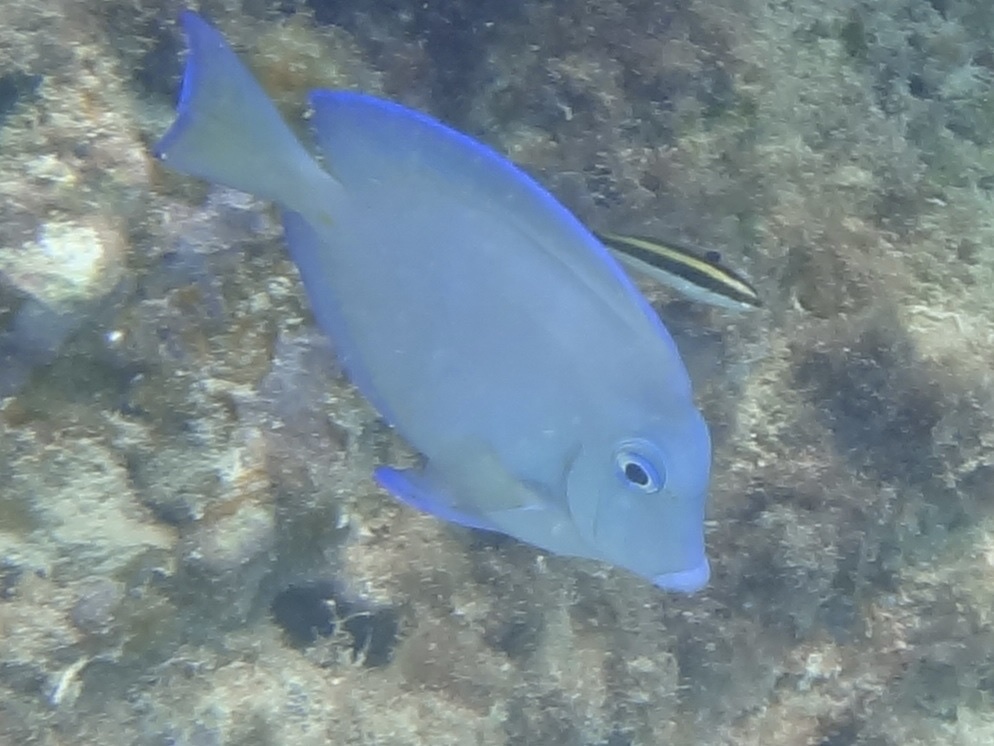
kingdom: Animalia
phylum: Chordata
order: Perciformes
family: Acanthuridae
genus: Acanthurus
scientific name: Acanthurus coeruleus
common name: Blue tang
